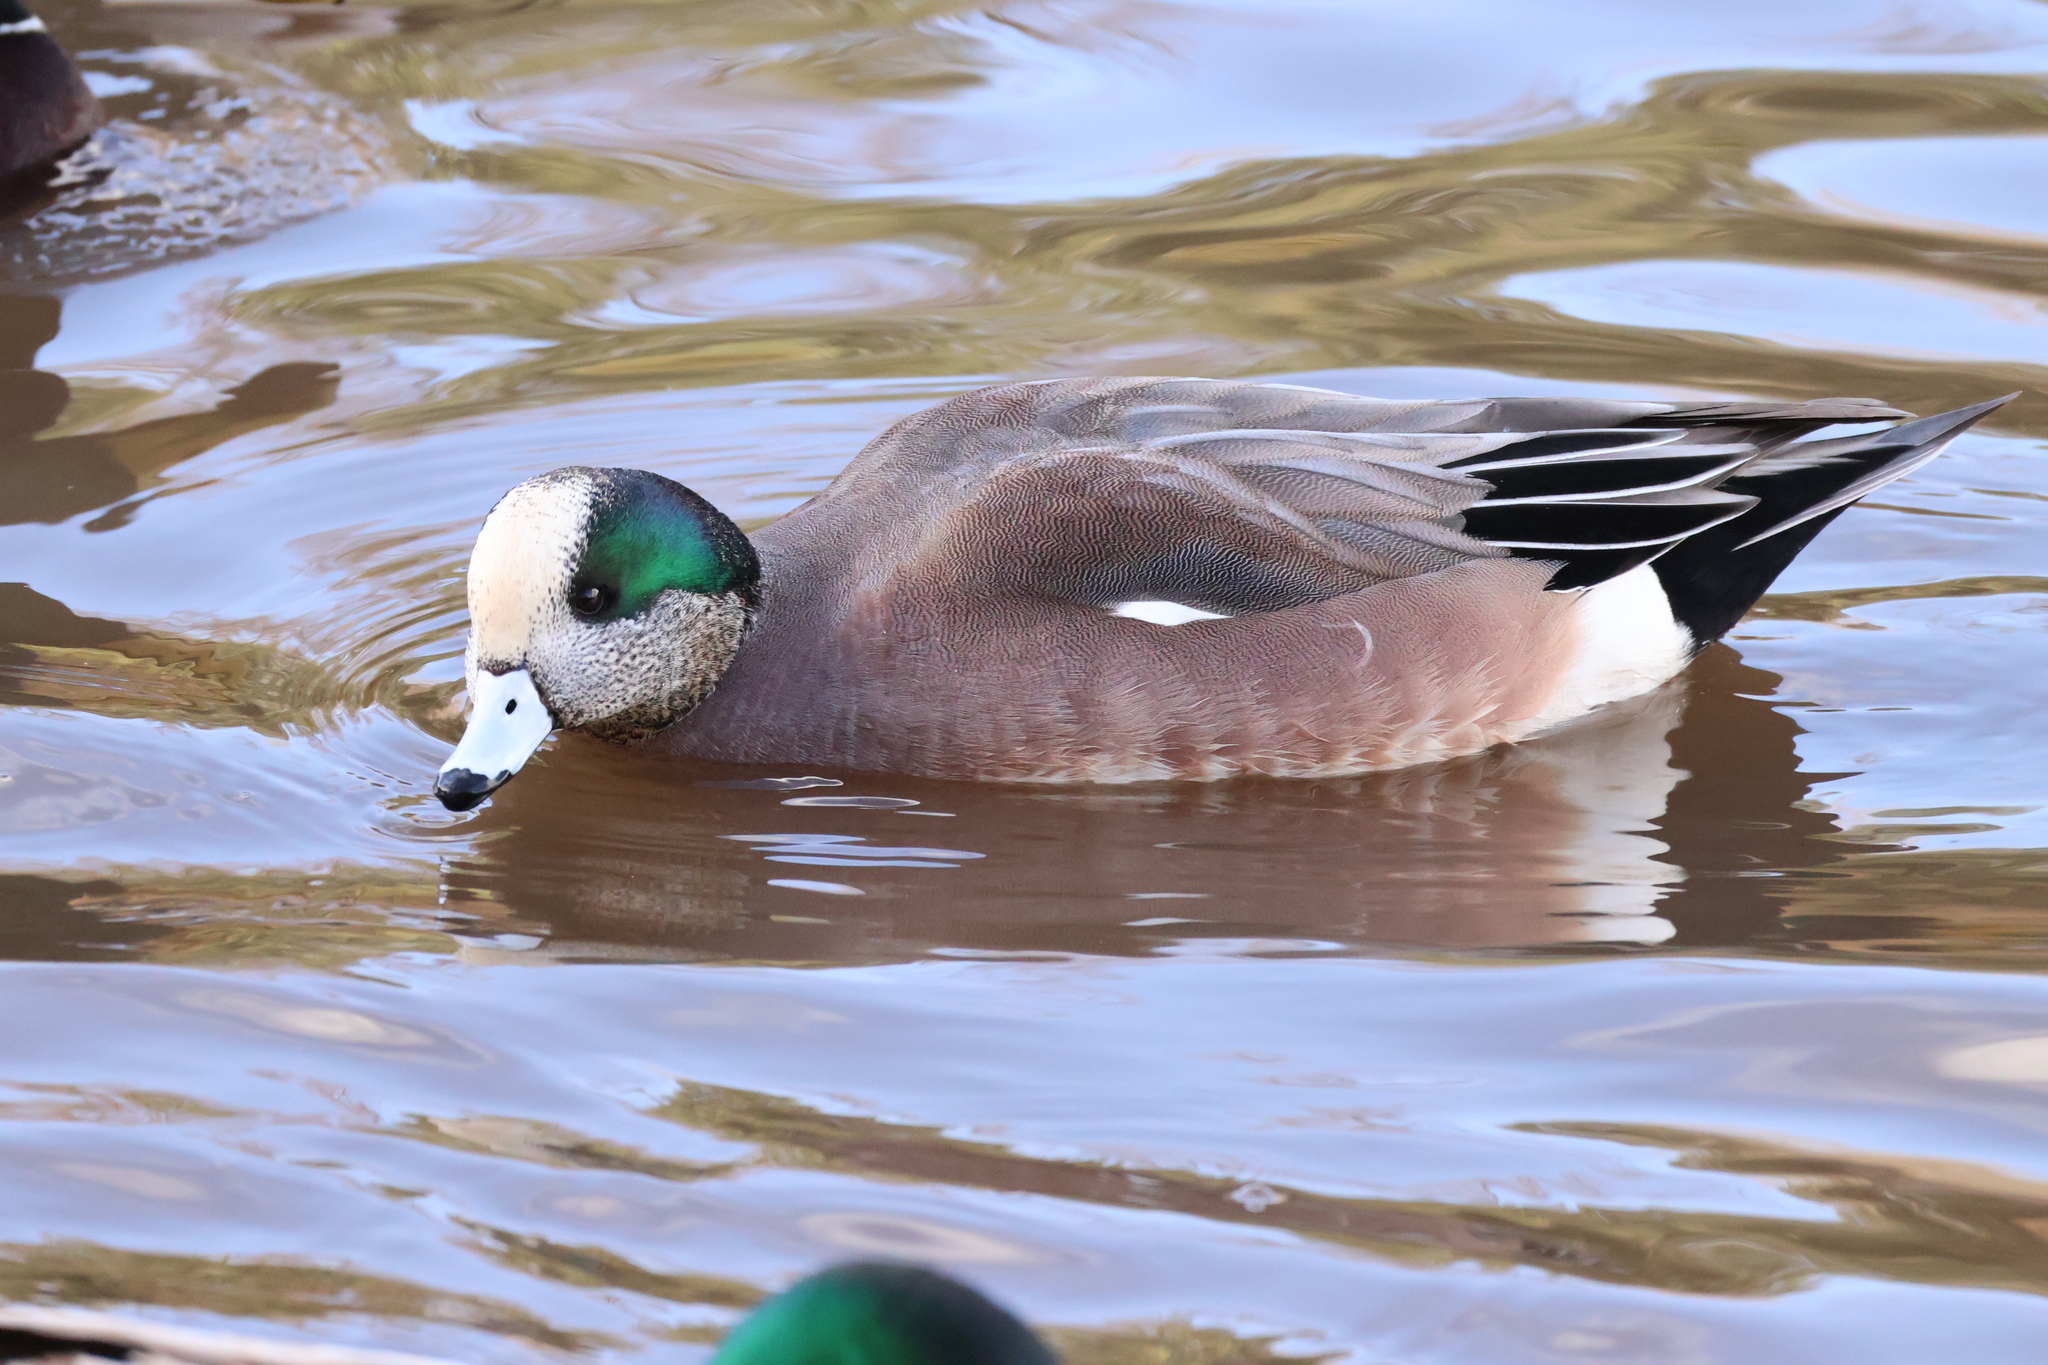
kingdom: Animalia
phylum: Chordata
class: Aves
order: Anseriformes
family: Anatidae
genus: Mareca
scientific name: Mareca americana
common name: American wigeon
